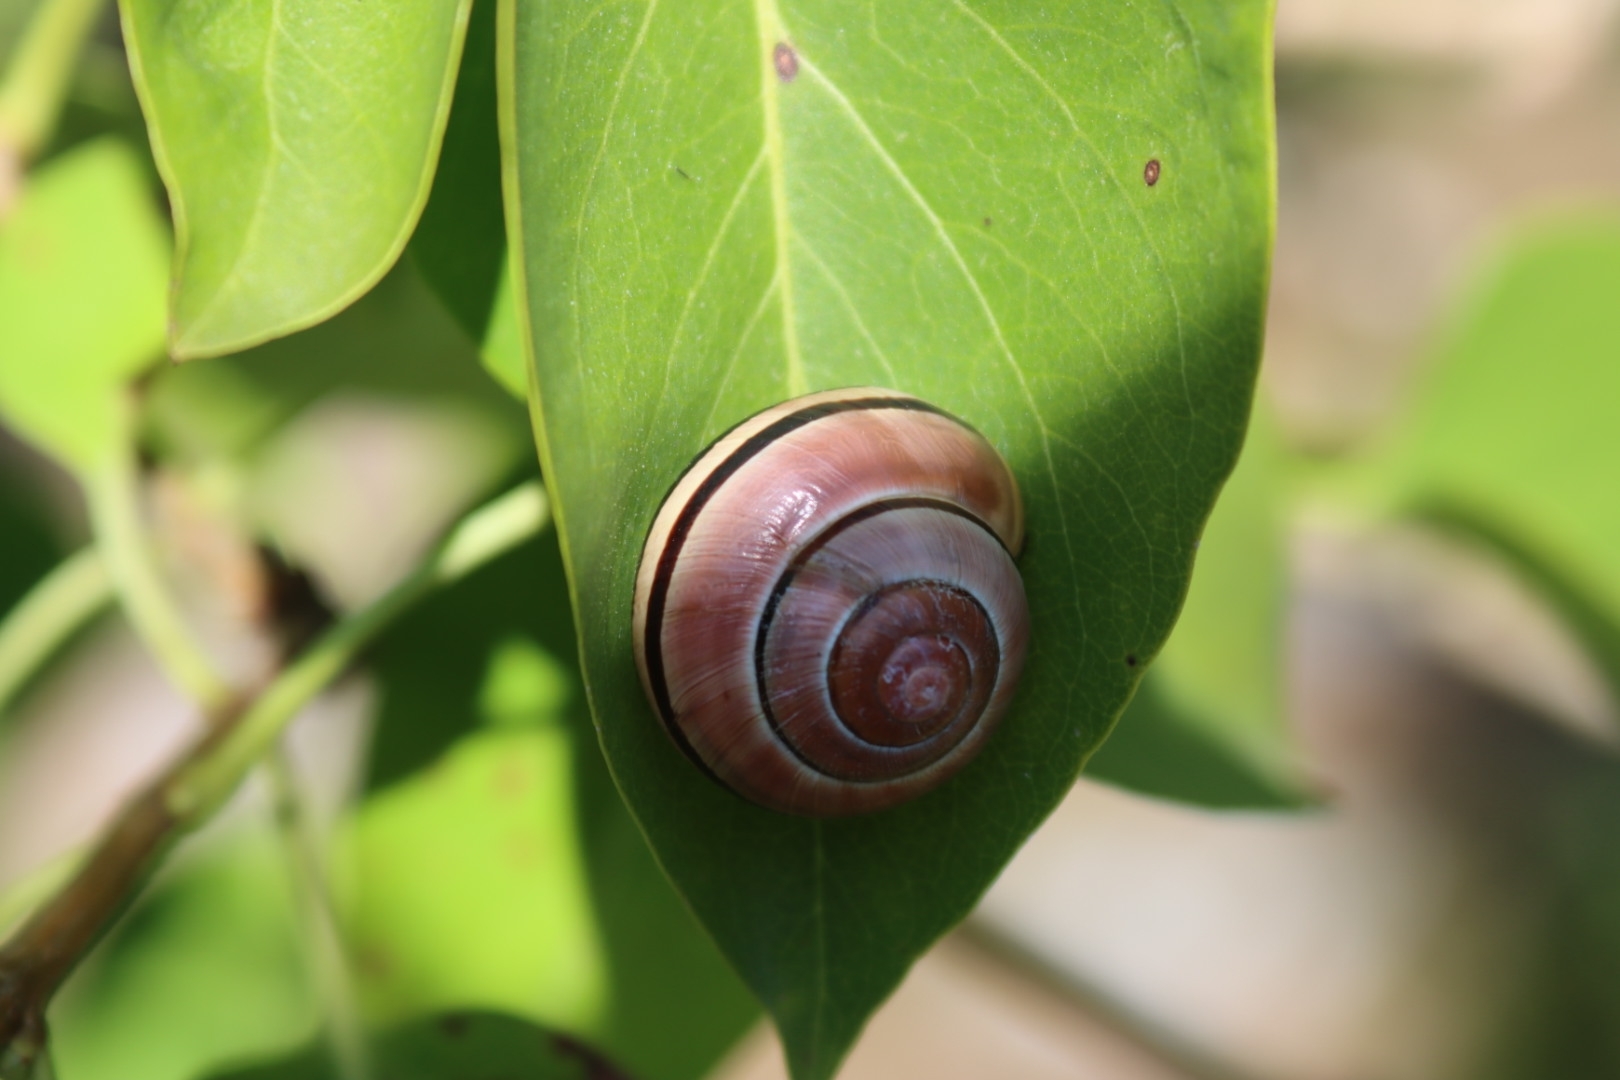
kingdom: Animalia
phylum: Mollusca
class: Gastropoda
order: Stylommatophora
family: Helicidae
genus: Cepaea
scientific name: Cepaea
